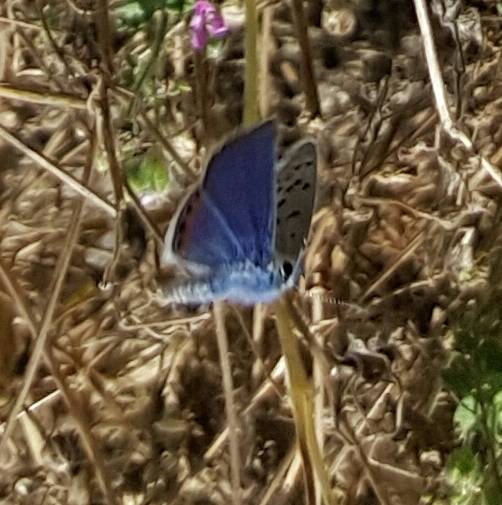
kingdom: Animalia
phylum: Arthropoda
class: Insecta
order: Lepidoptera
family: Lycaenidae
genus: Icaricia
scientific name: Icaricia acmon
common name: Acmon blue
